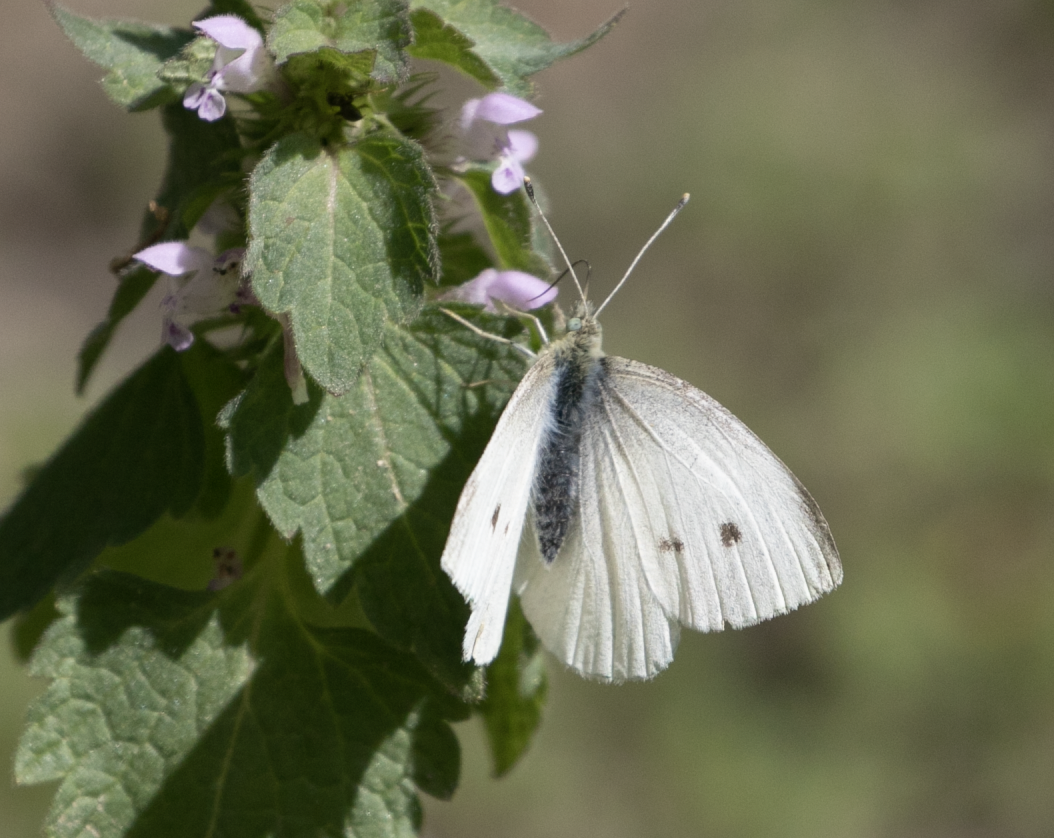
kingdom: Animalia
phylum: Arthropoda
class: Insecta
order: Lepidoptera
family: Pieridae
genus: Pieris
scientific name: Pieris rapae
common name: Small white
